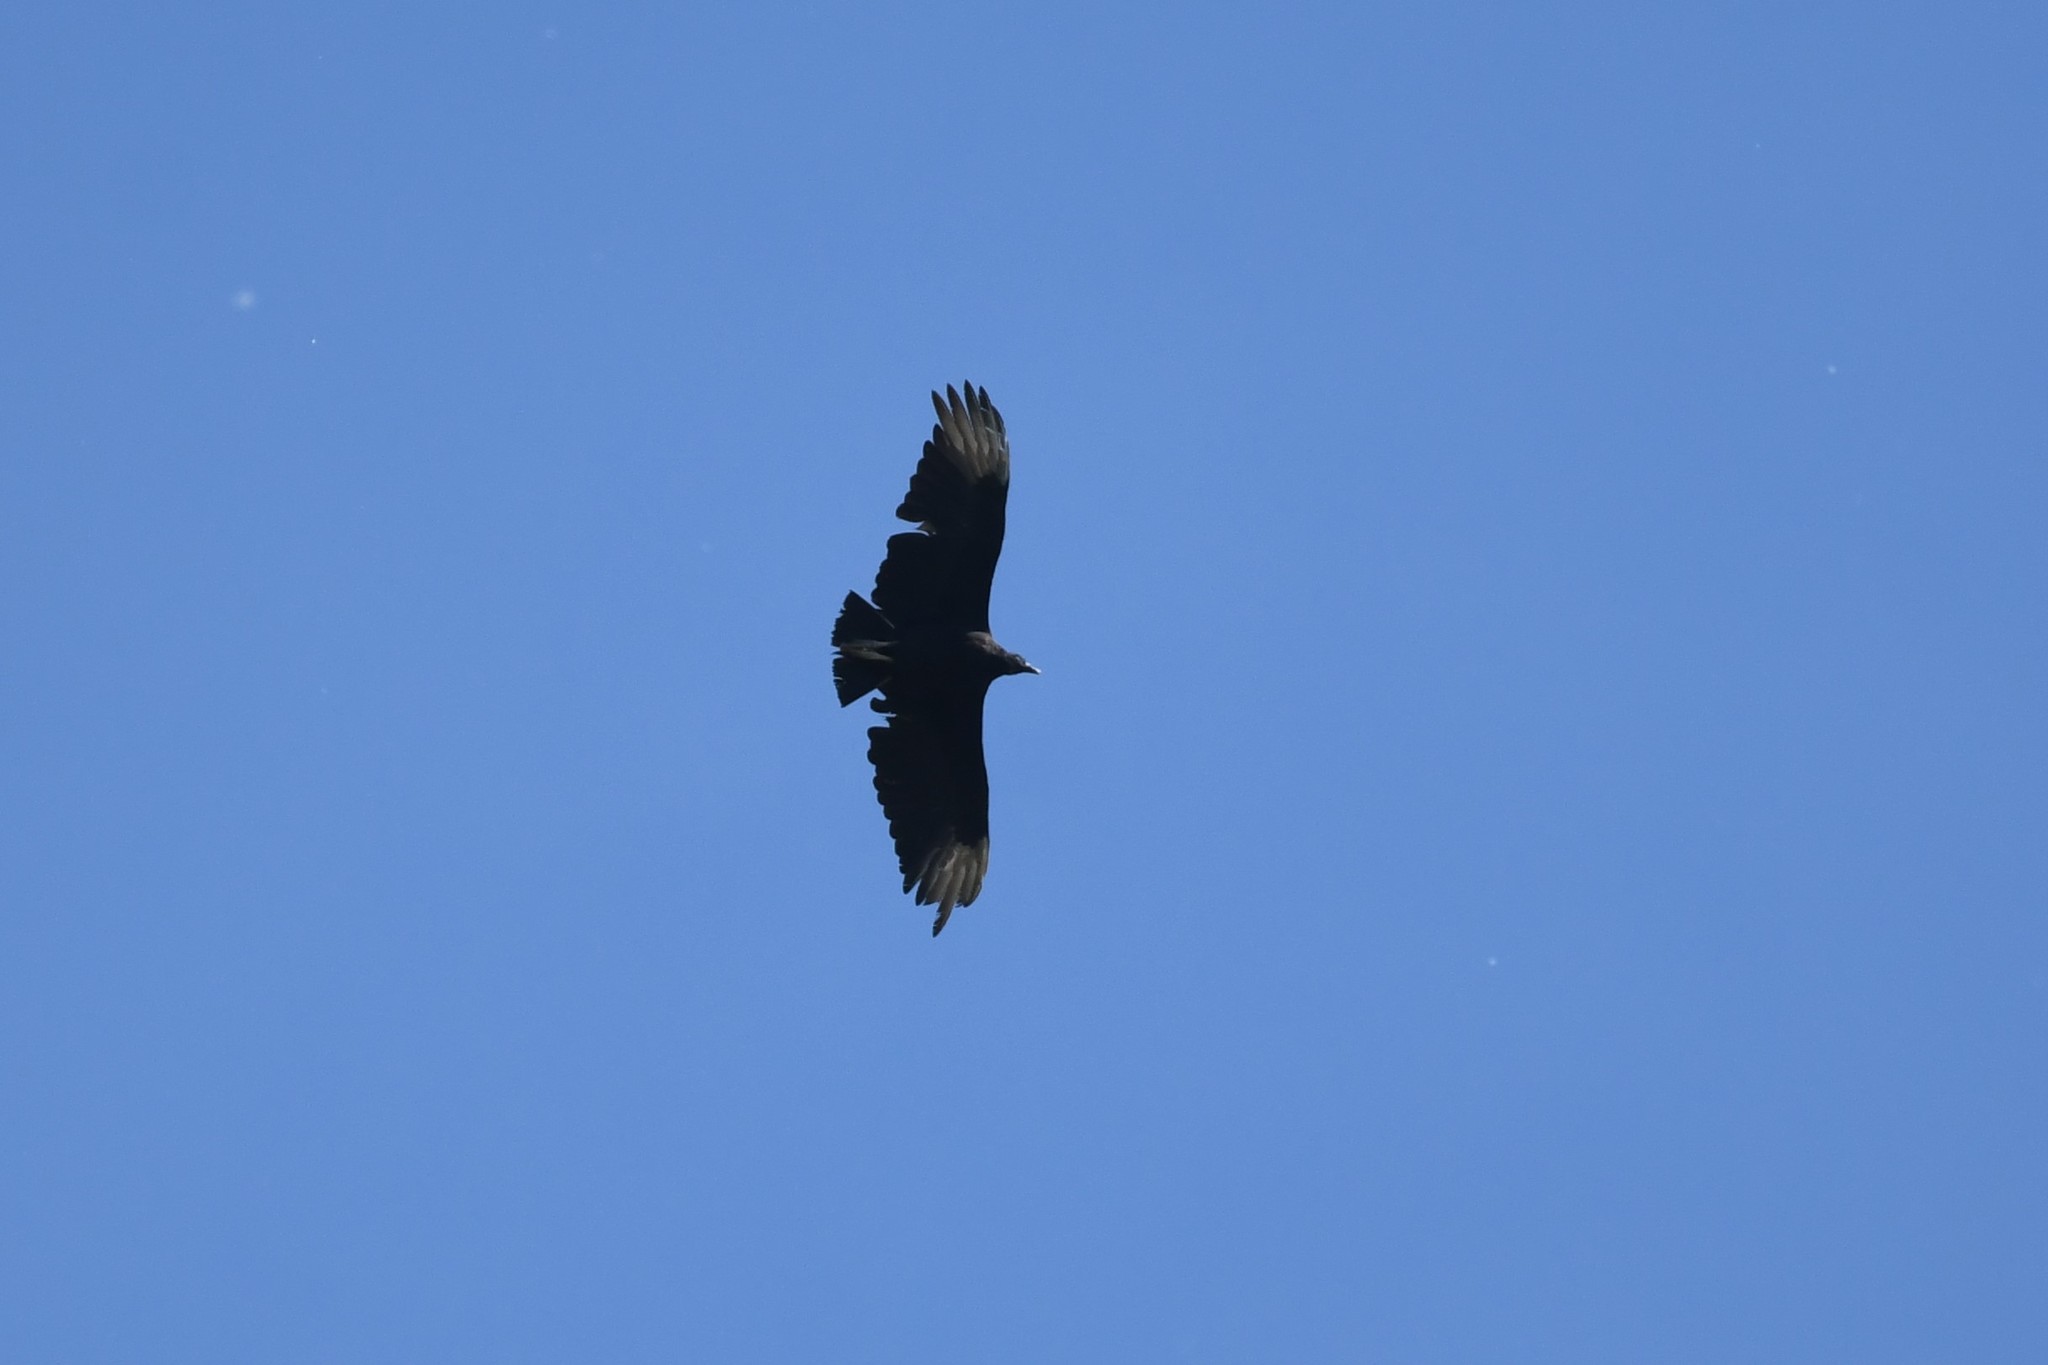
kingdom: Animalia
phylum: Chordata
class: Aves
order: Accipitriformes
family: Cathartidae
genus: Coragyps
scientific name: Coragyps atratus
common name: Black vulture
